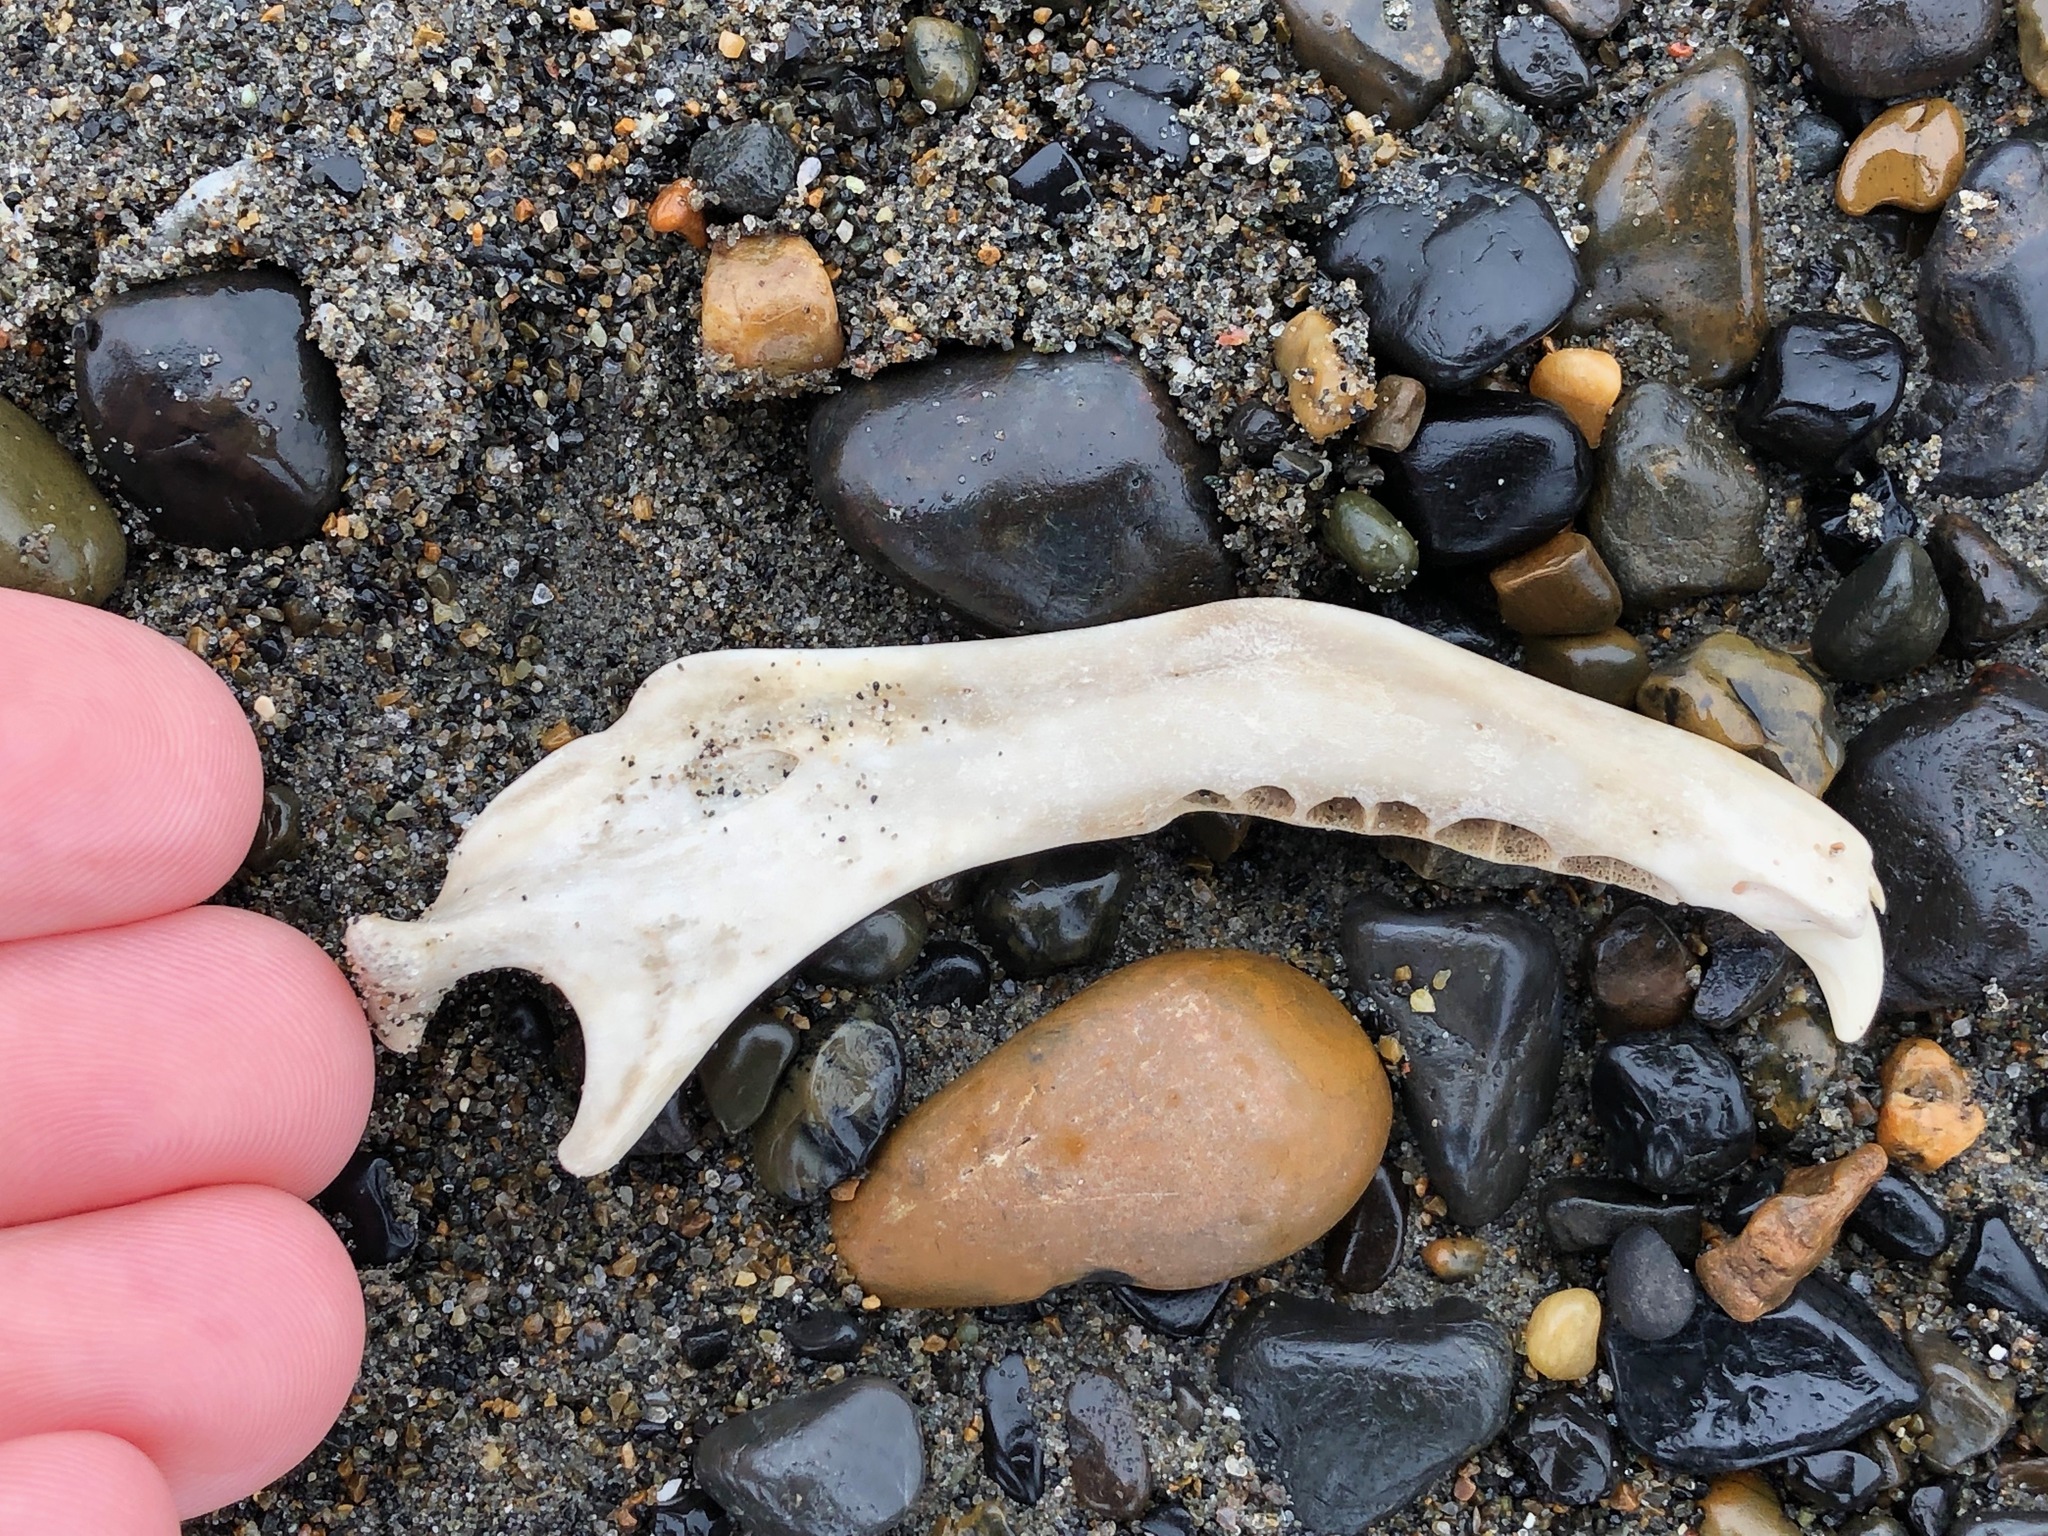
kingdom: Animalia
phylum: Chordata
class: Mammalia
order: Carnivora
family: Phocidae
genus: Pusa
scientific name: Pusa hispida
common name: Ringed seal
